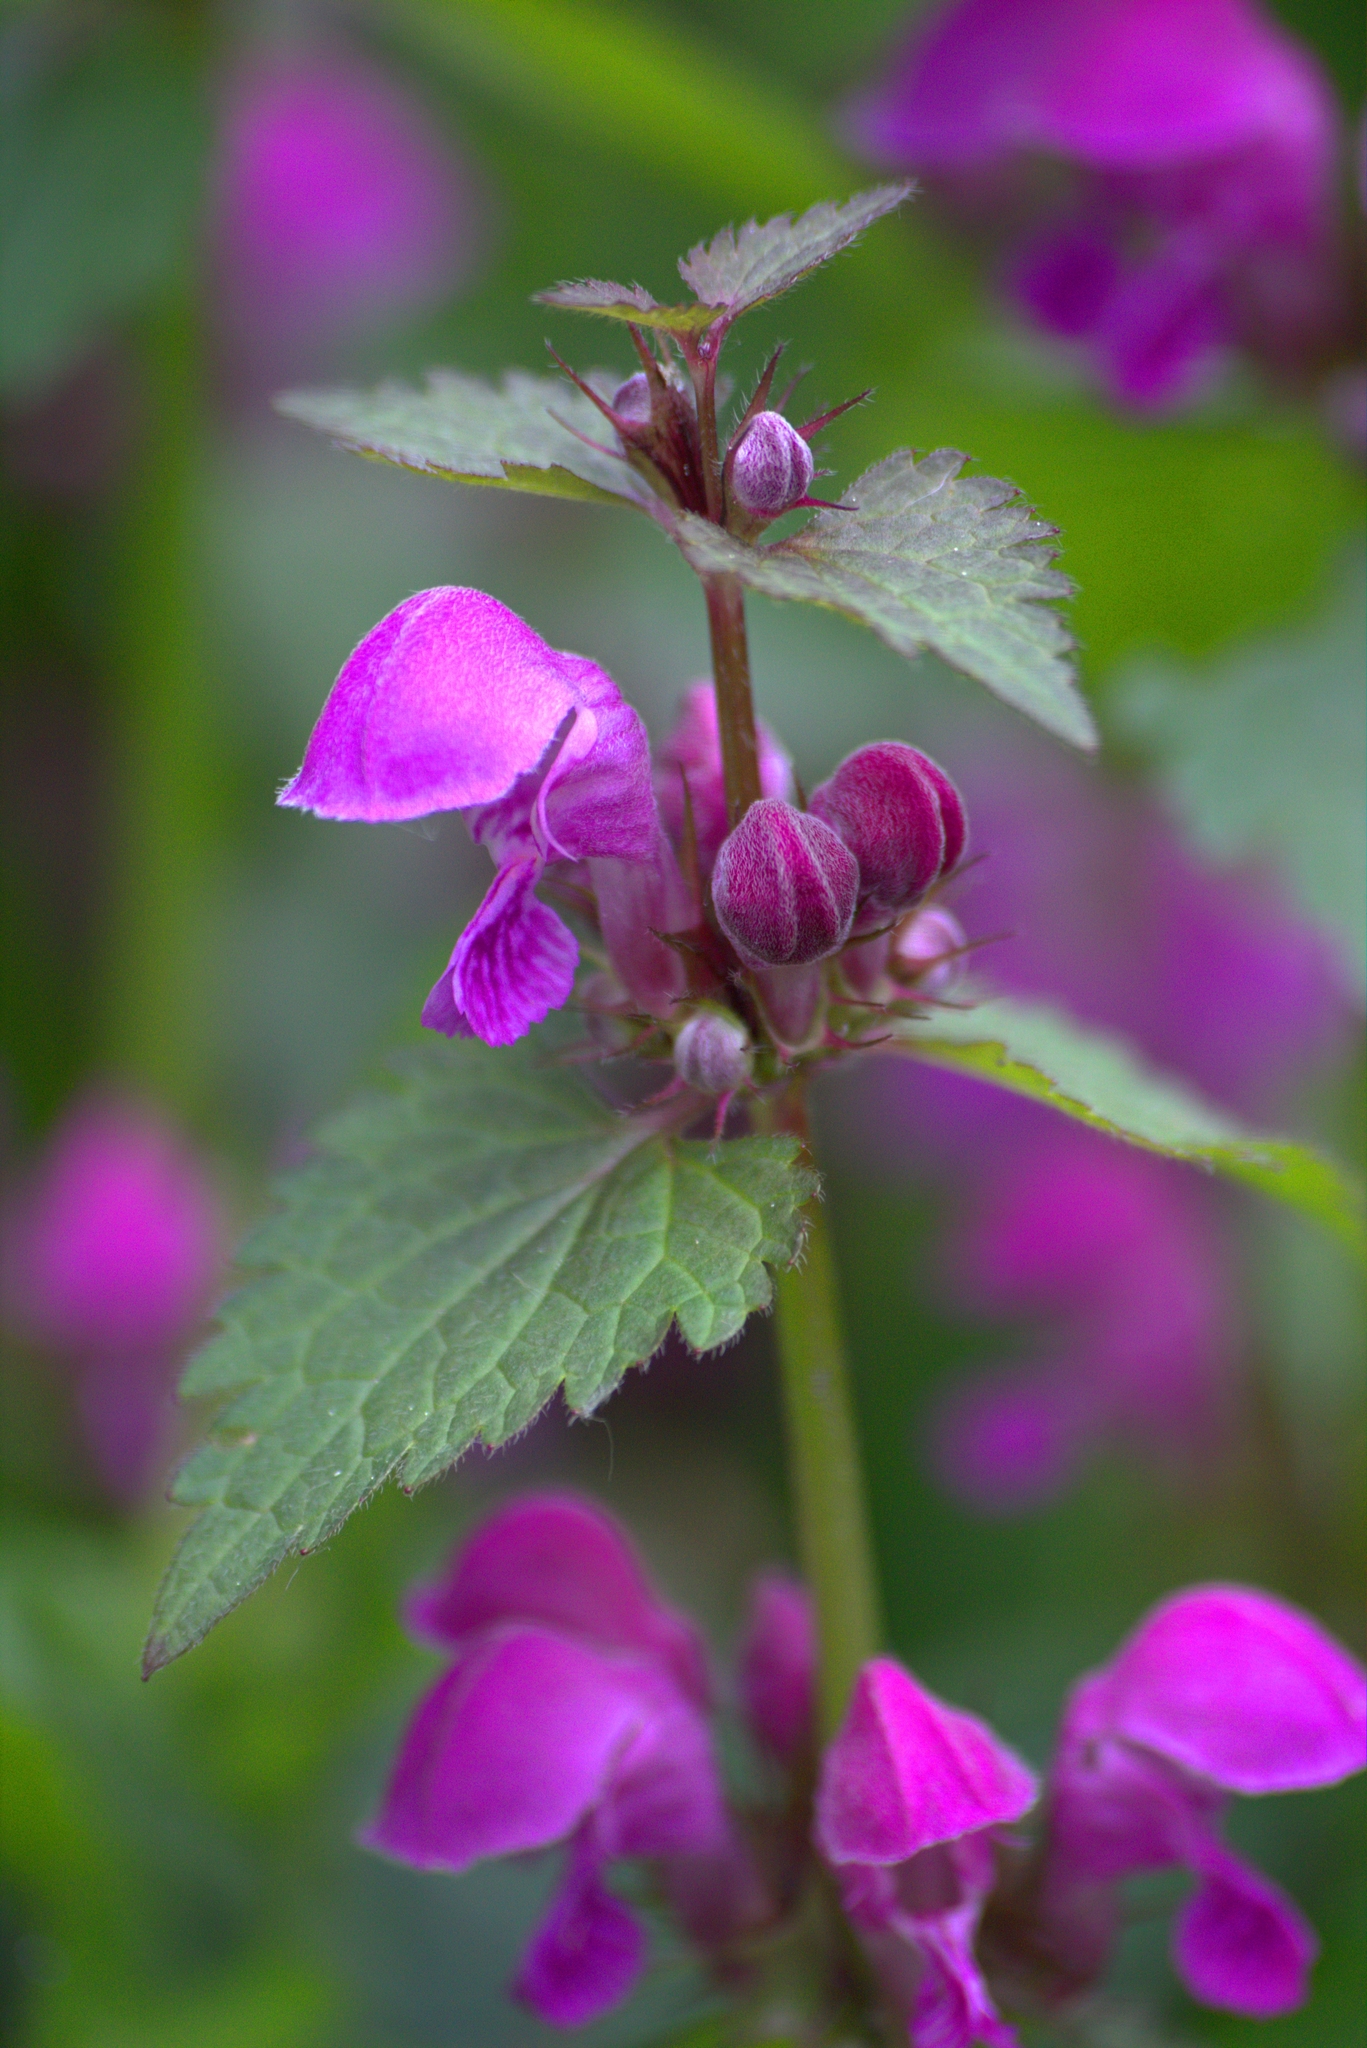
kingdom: Plantae
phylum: Tracheophyta
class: Magnoliopsida
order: Lamiales
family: Lamiaceae
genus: Lamium
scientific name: Lamium maculatum
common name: Spotted dead-nettle
